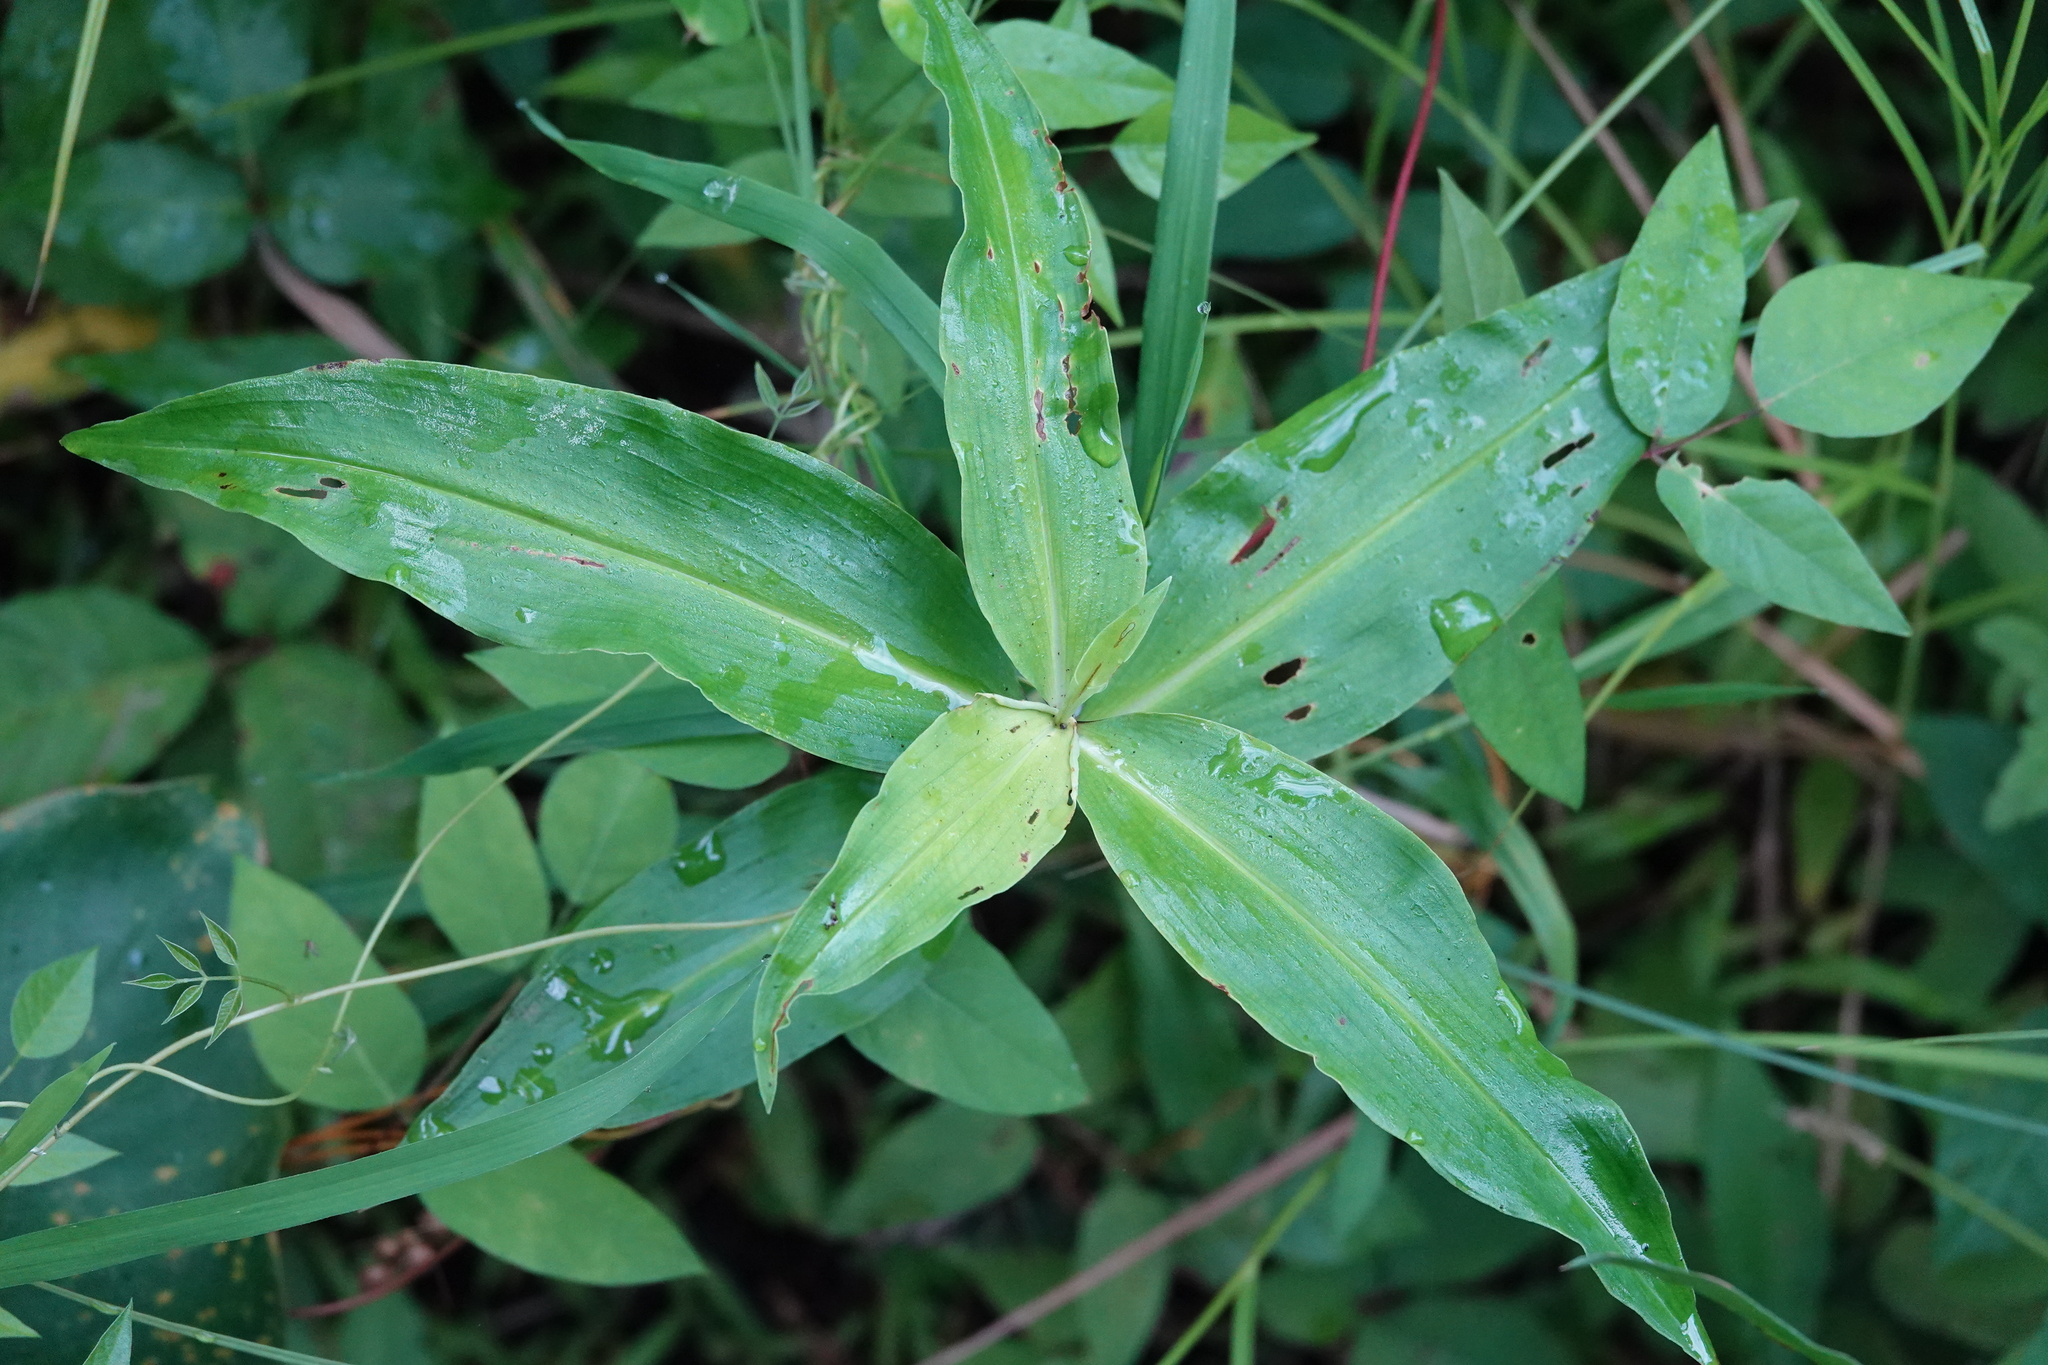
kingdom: Plantae
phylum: Tracheophyta
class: Liliopsida
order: Commelinales
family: Commelinaceae
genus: Commelina
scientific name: Commelina virginica
